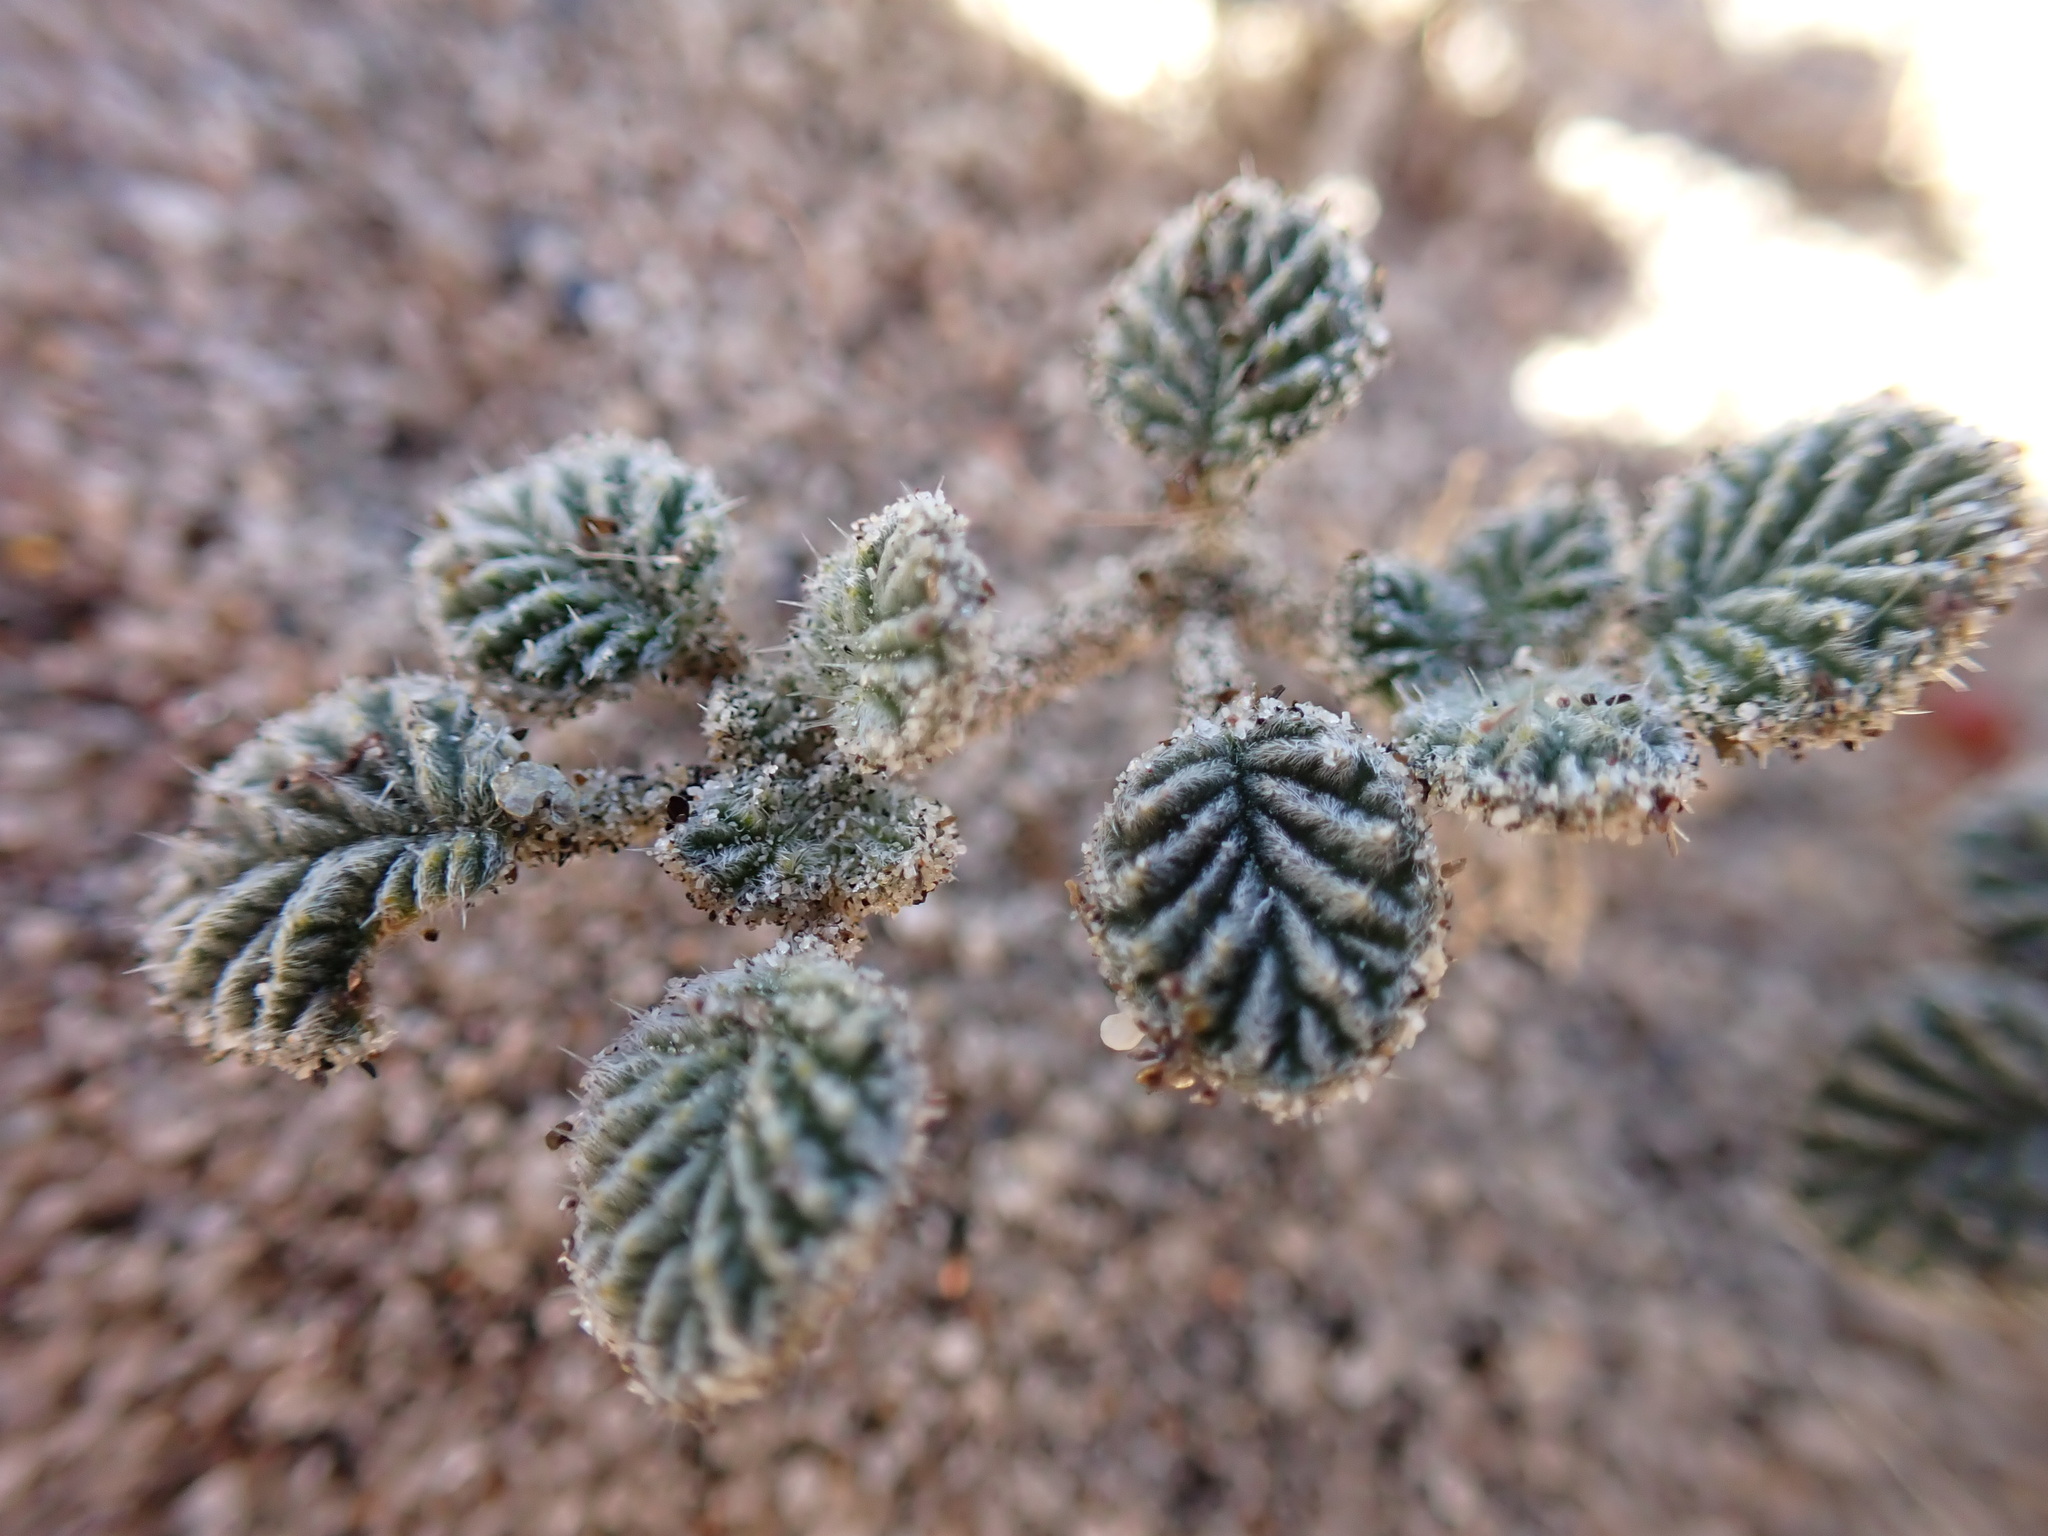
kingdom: Plantae
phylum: Tracheophyta
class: Magnoliopsida
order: Boraginales
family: Ehretiaceae
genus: Tiquilia
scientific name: Tiquilia plicata
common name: Fan-leaf tiquilia
